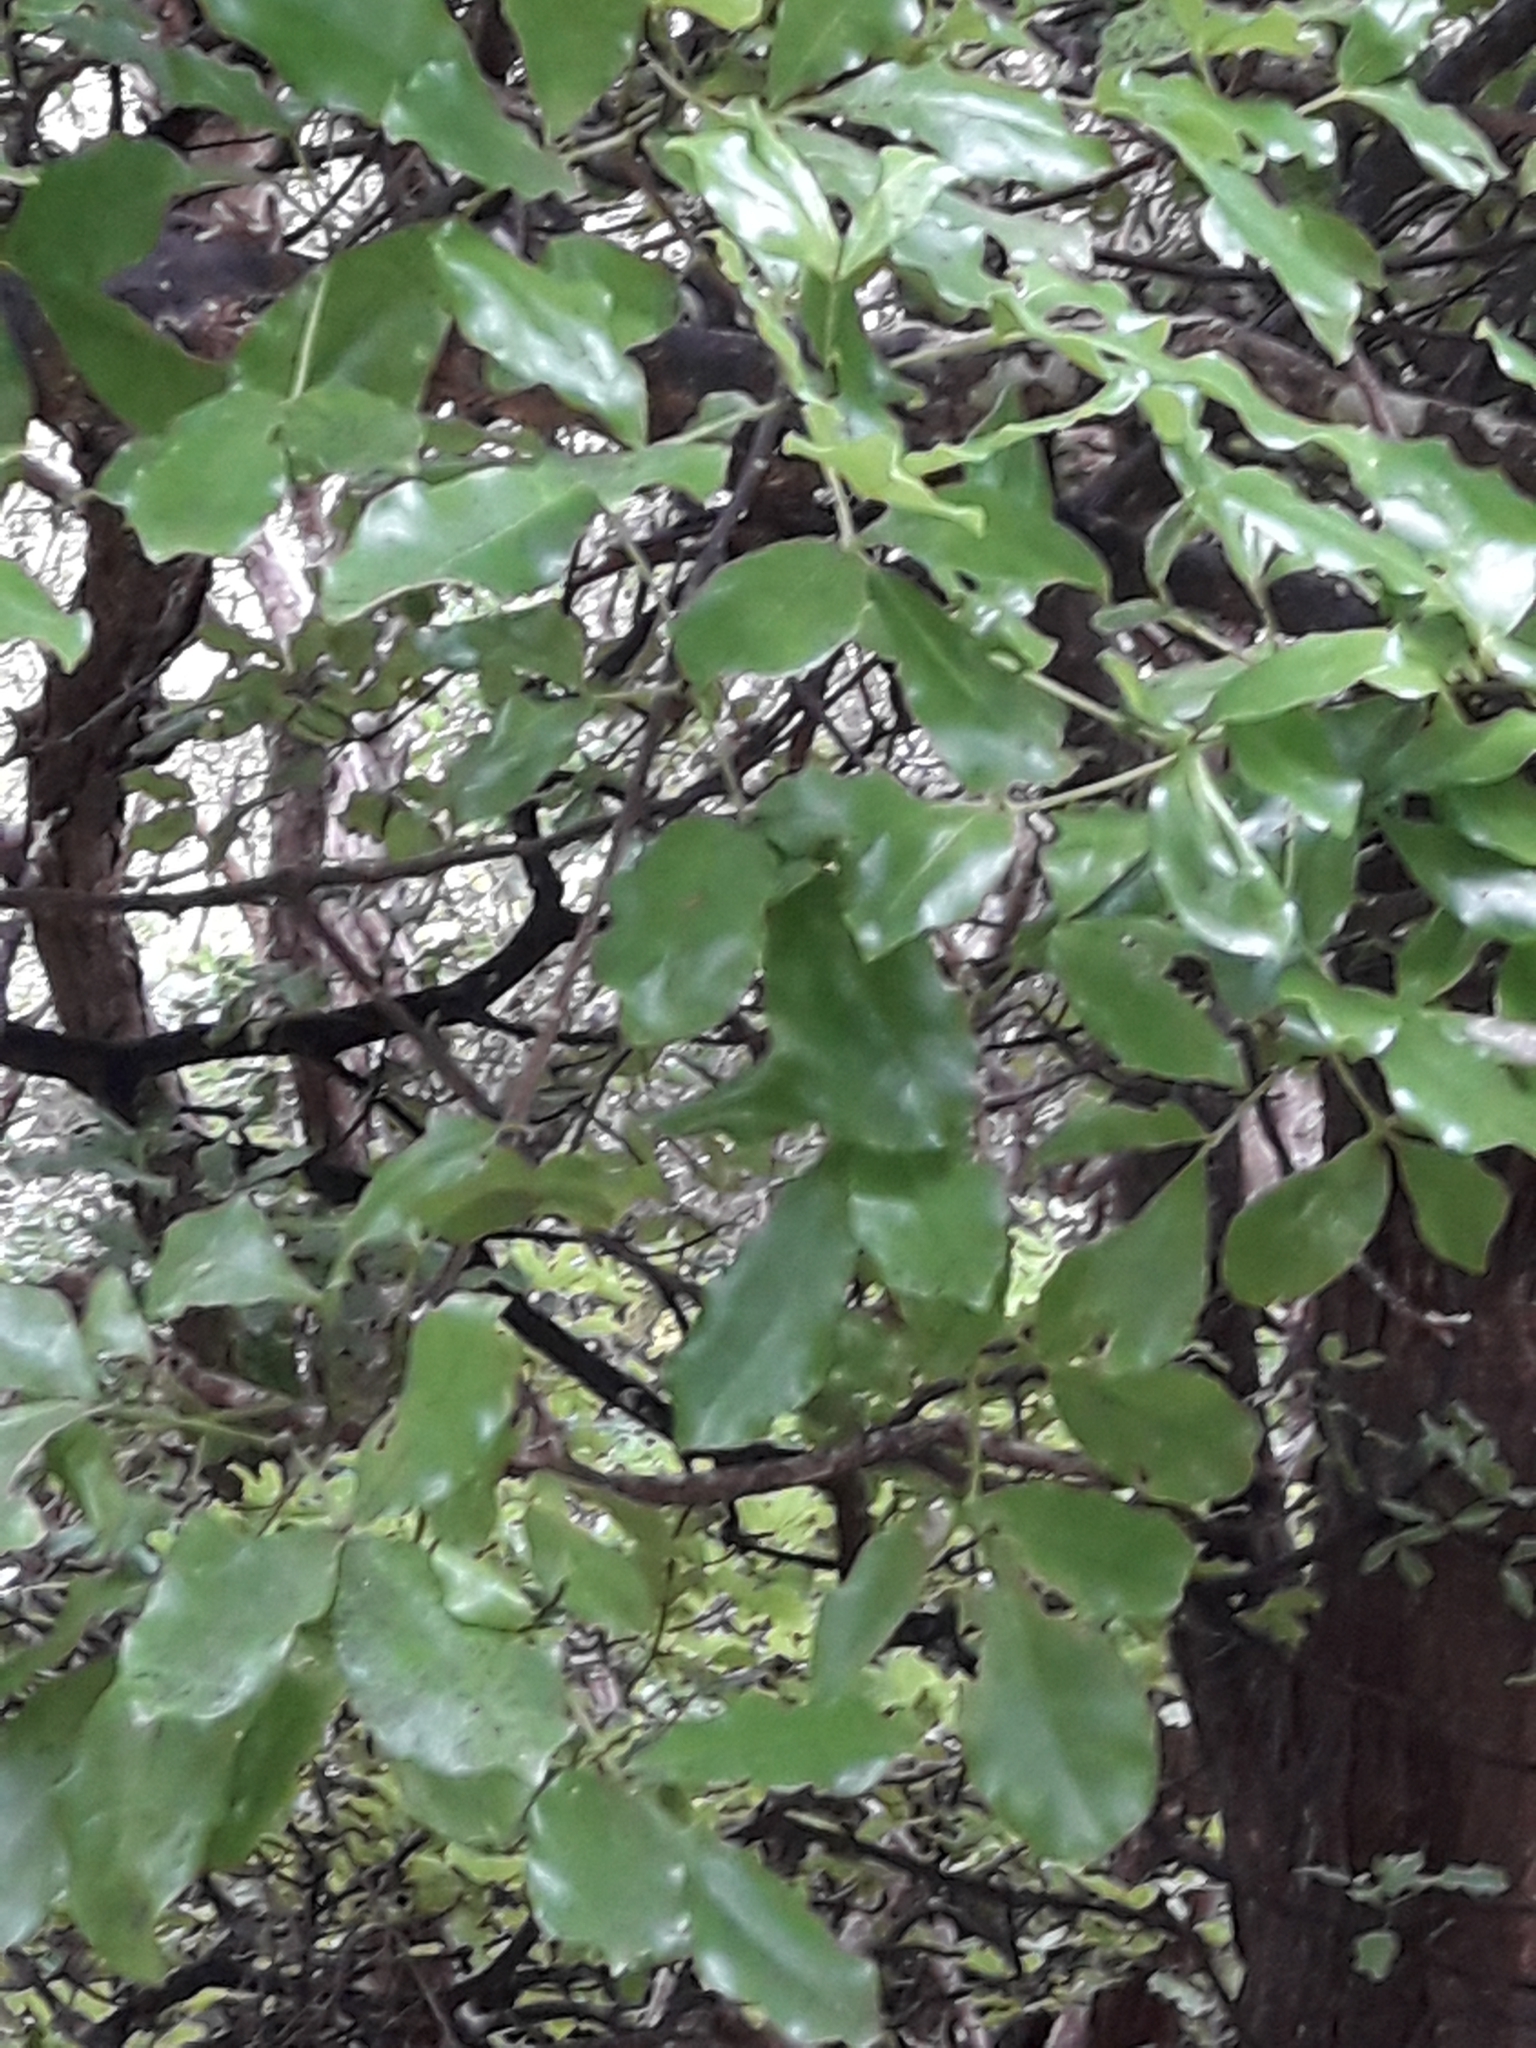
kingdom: Plantae
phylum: Tracheophyta
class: Magnoliopsida
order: Sapindales
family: Rutaceae
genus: Melicope
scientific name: Melicope ternata
